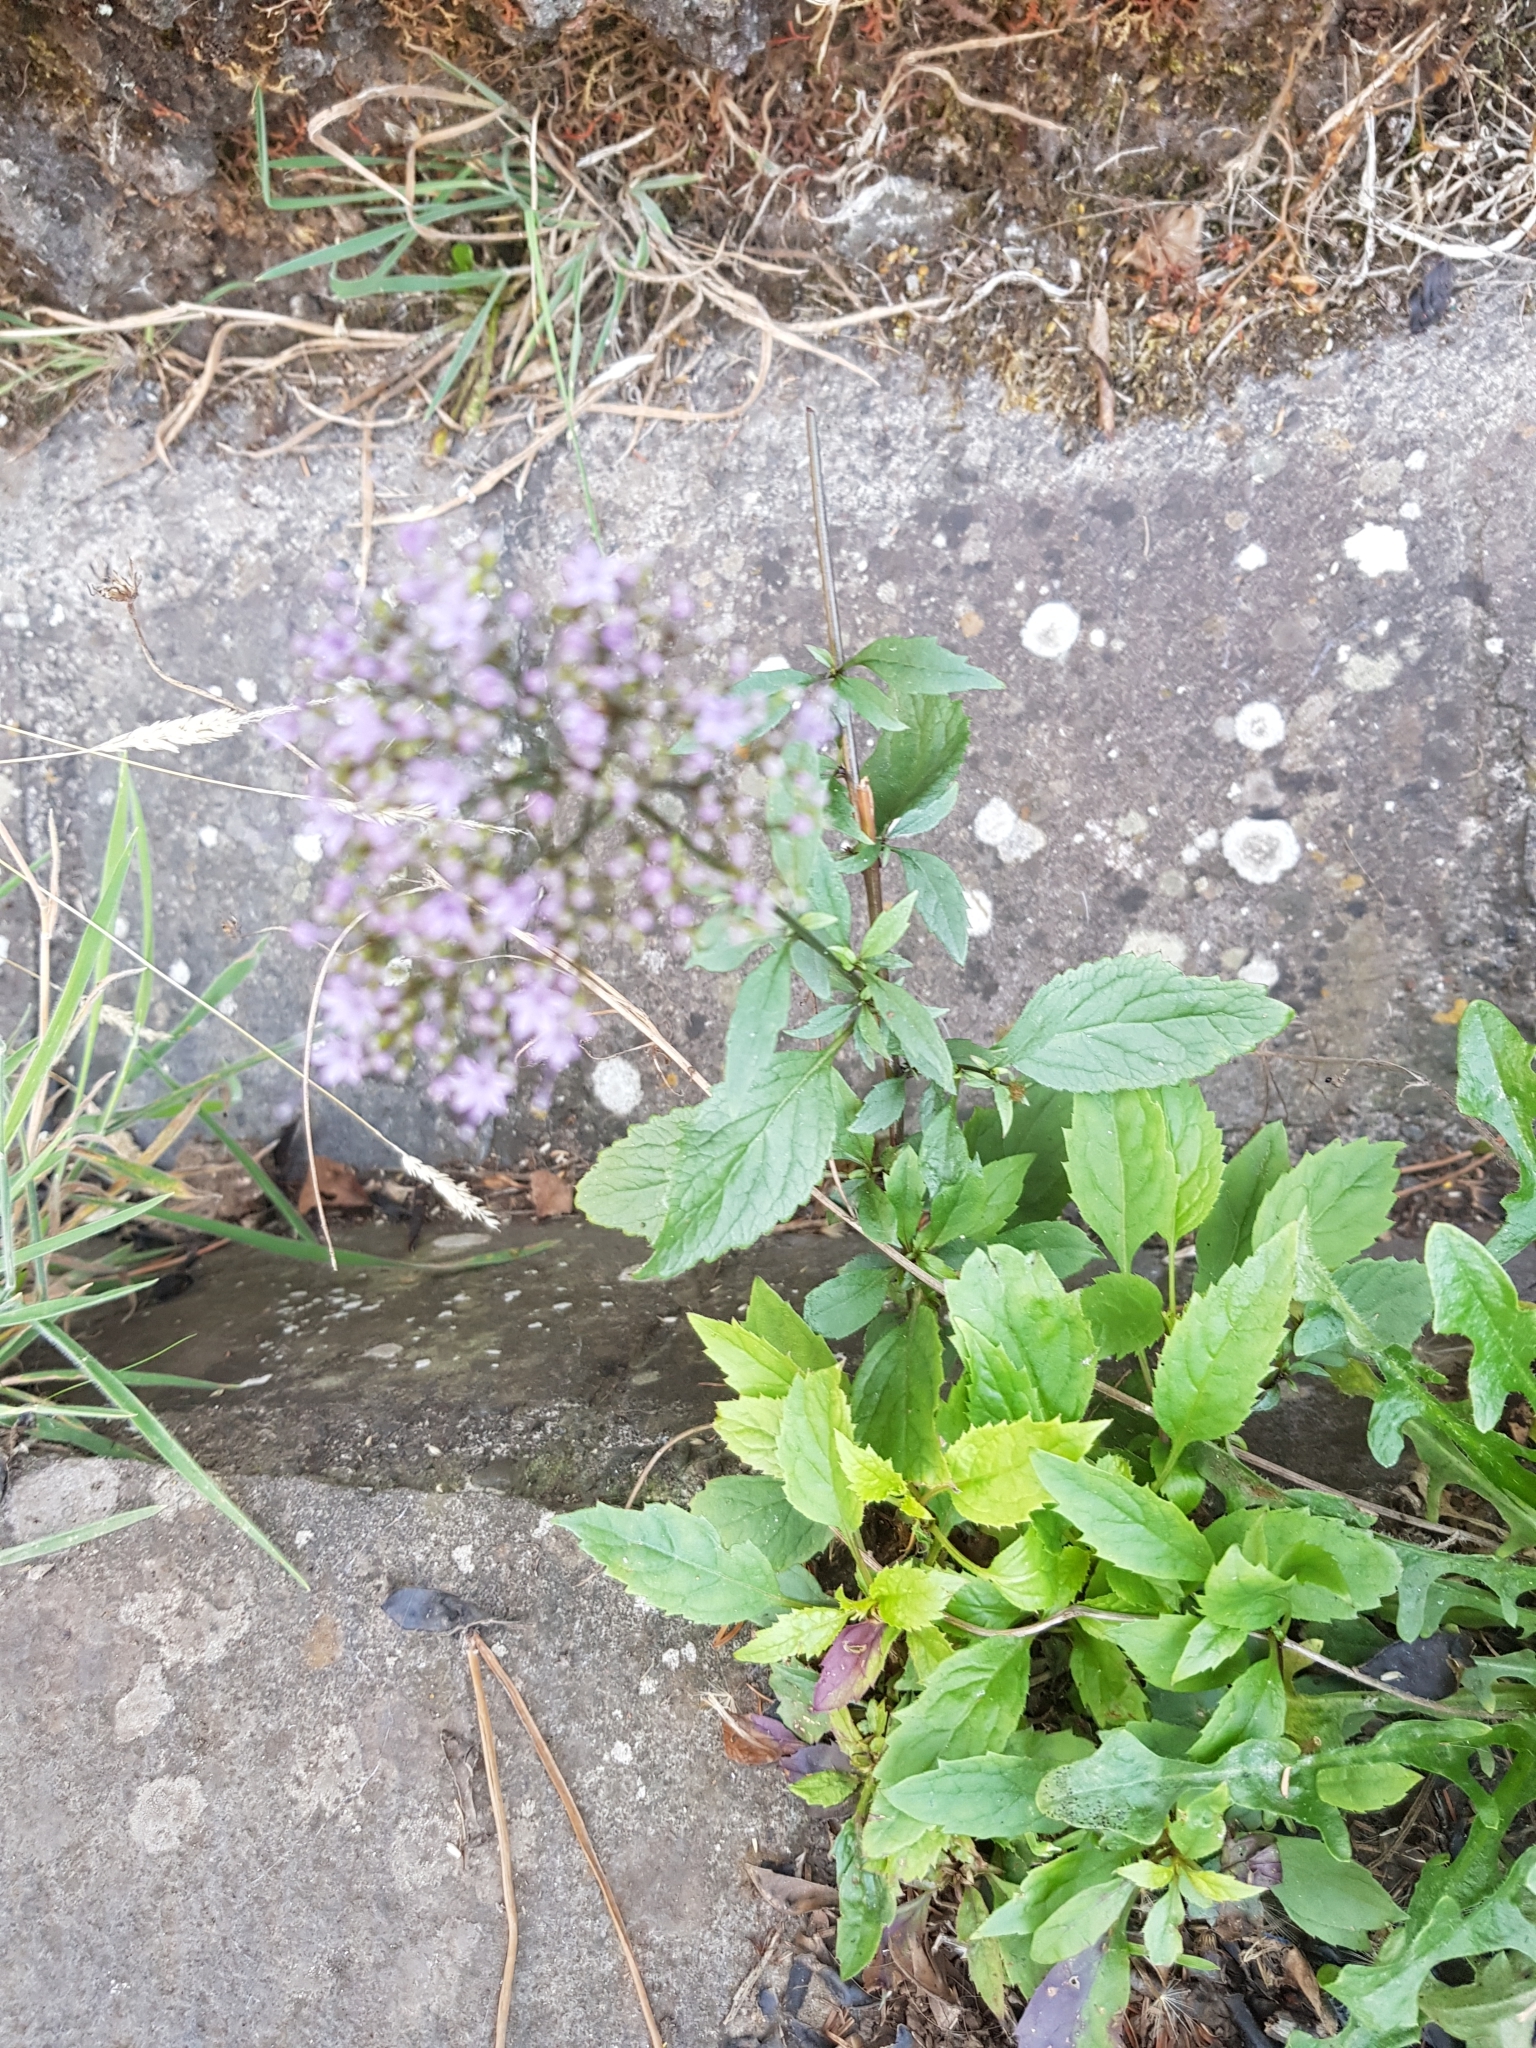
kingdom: Plantae
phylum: Tracheophyta
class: Magnoliopsida
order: Asterales
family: Campanulaceae
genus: Trachelium
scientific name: Trachelium caeruleum
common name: Throatwort
